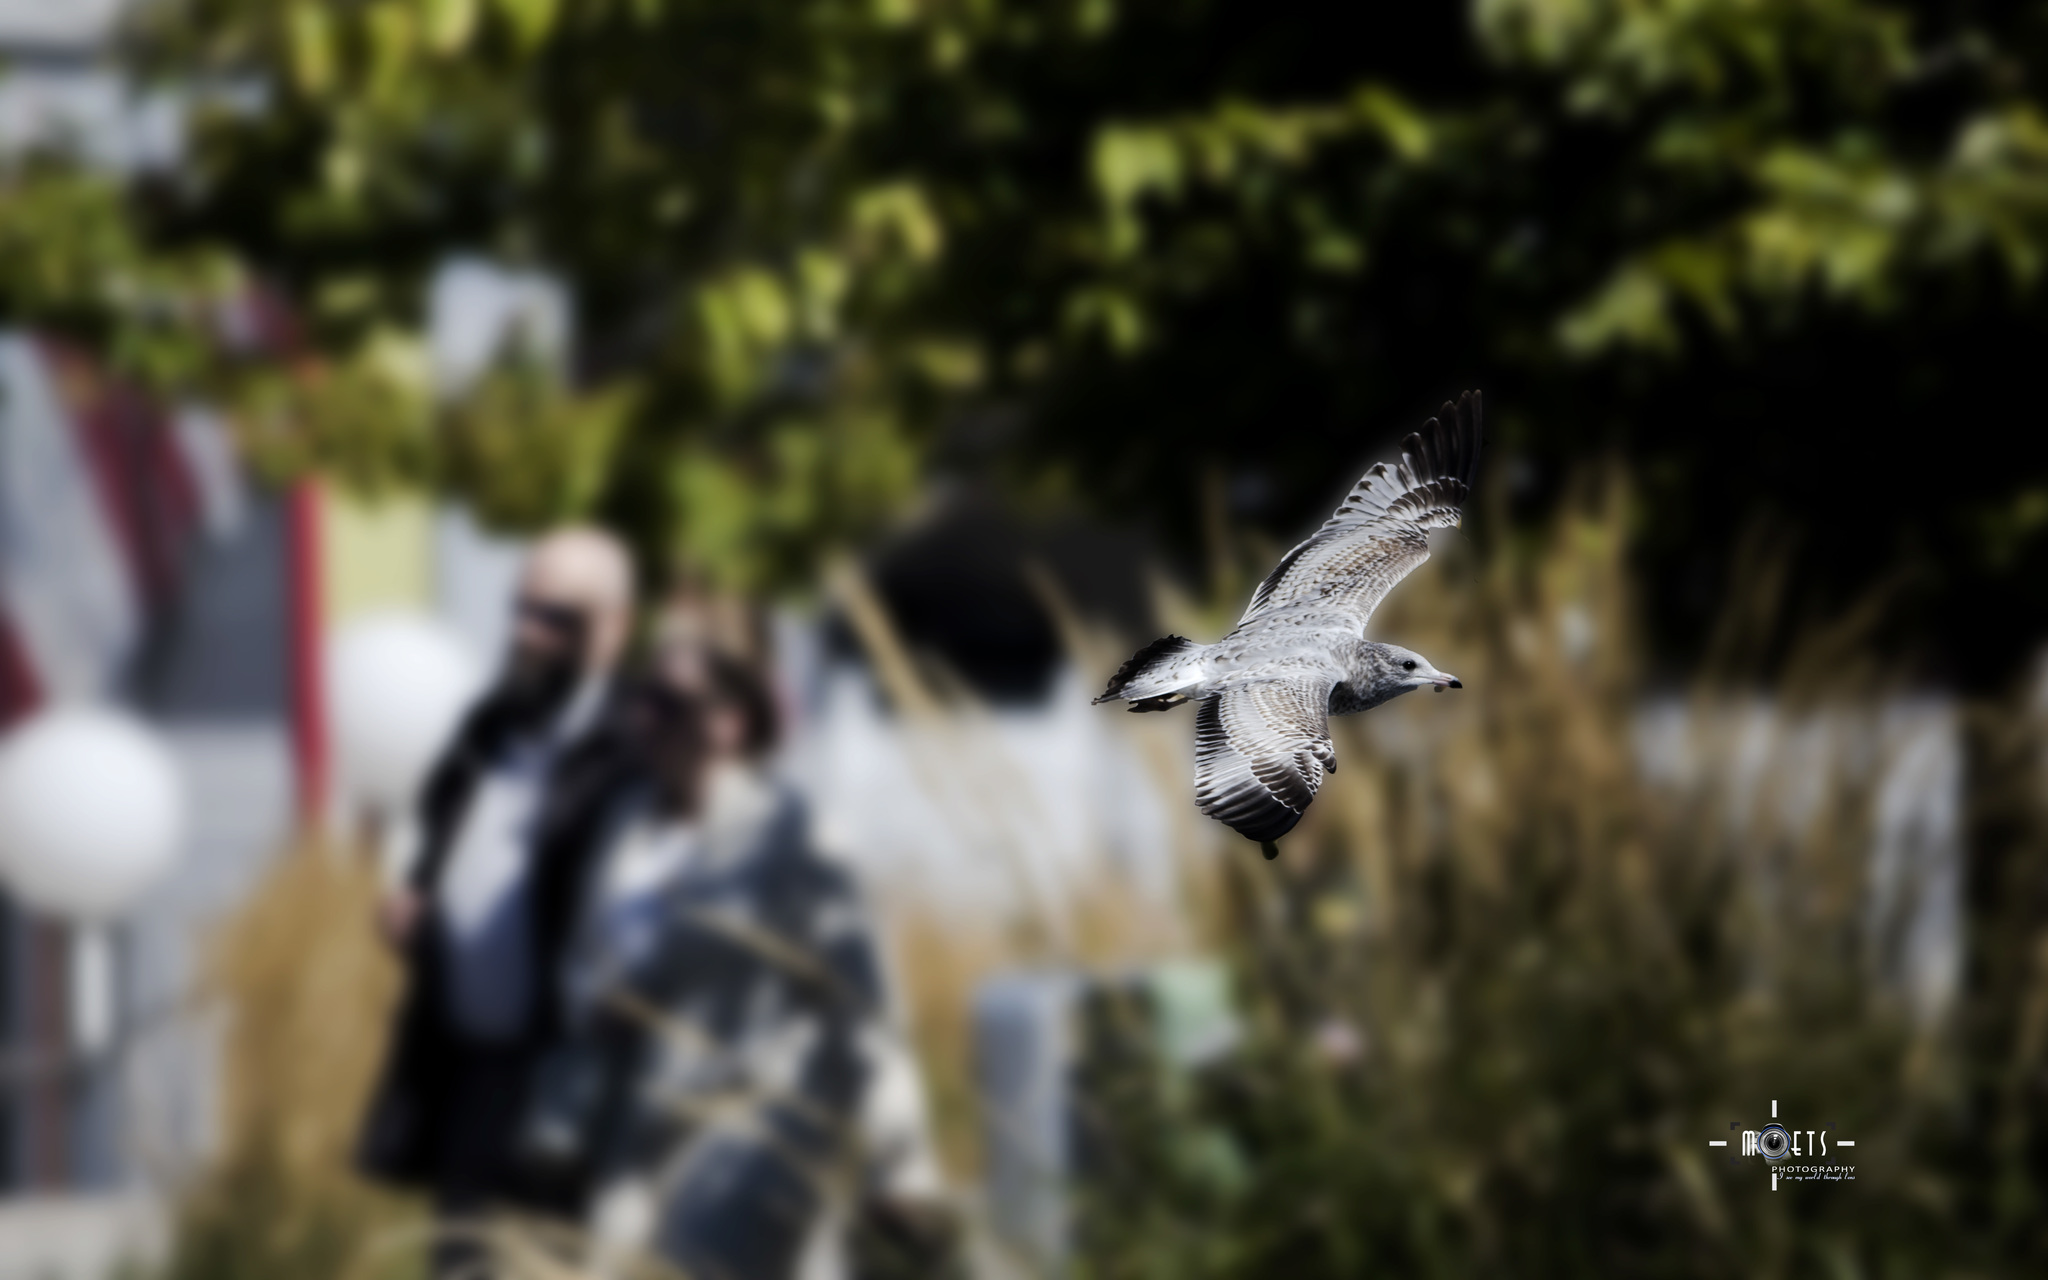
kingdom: Animalia
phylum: Chordata
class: Aves
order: Charadriiformes
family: Laridae
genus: Larus
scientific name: Larus delawarensis
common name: Ring-billed gull
